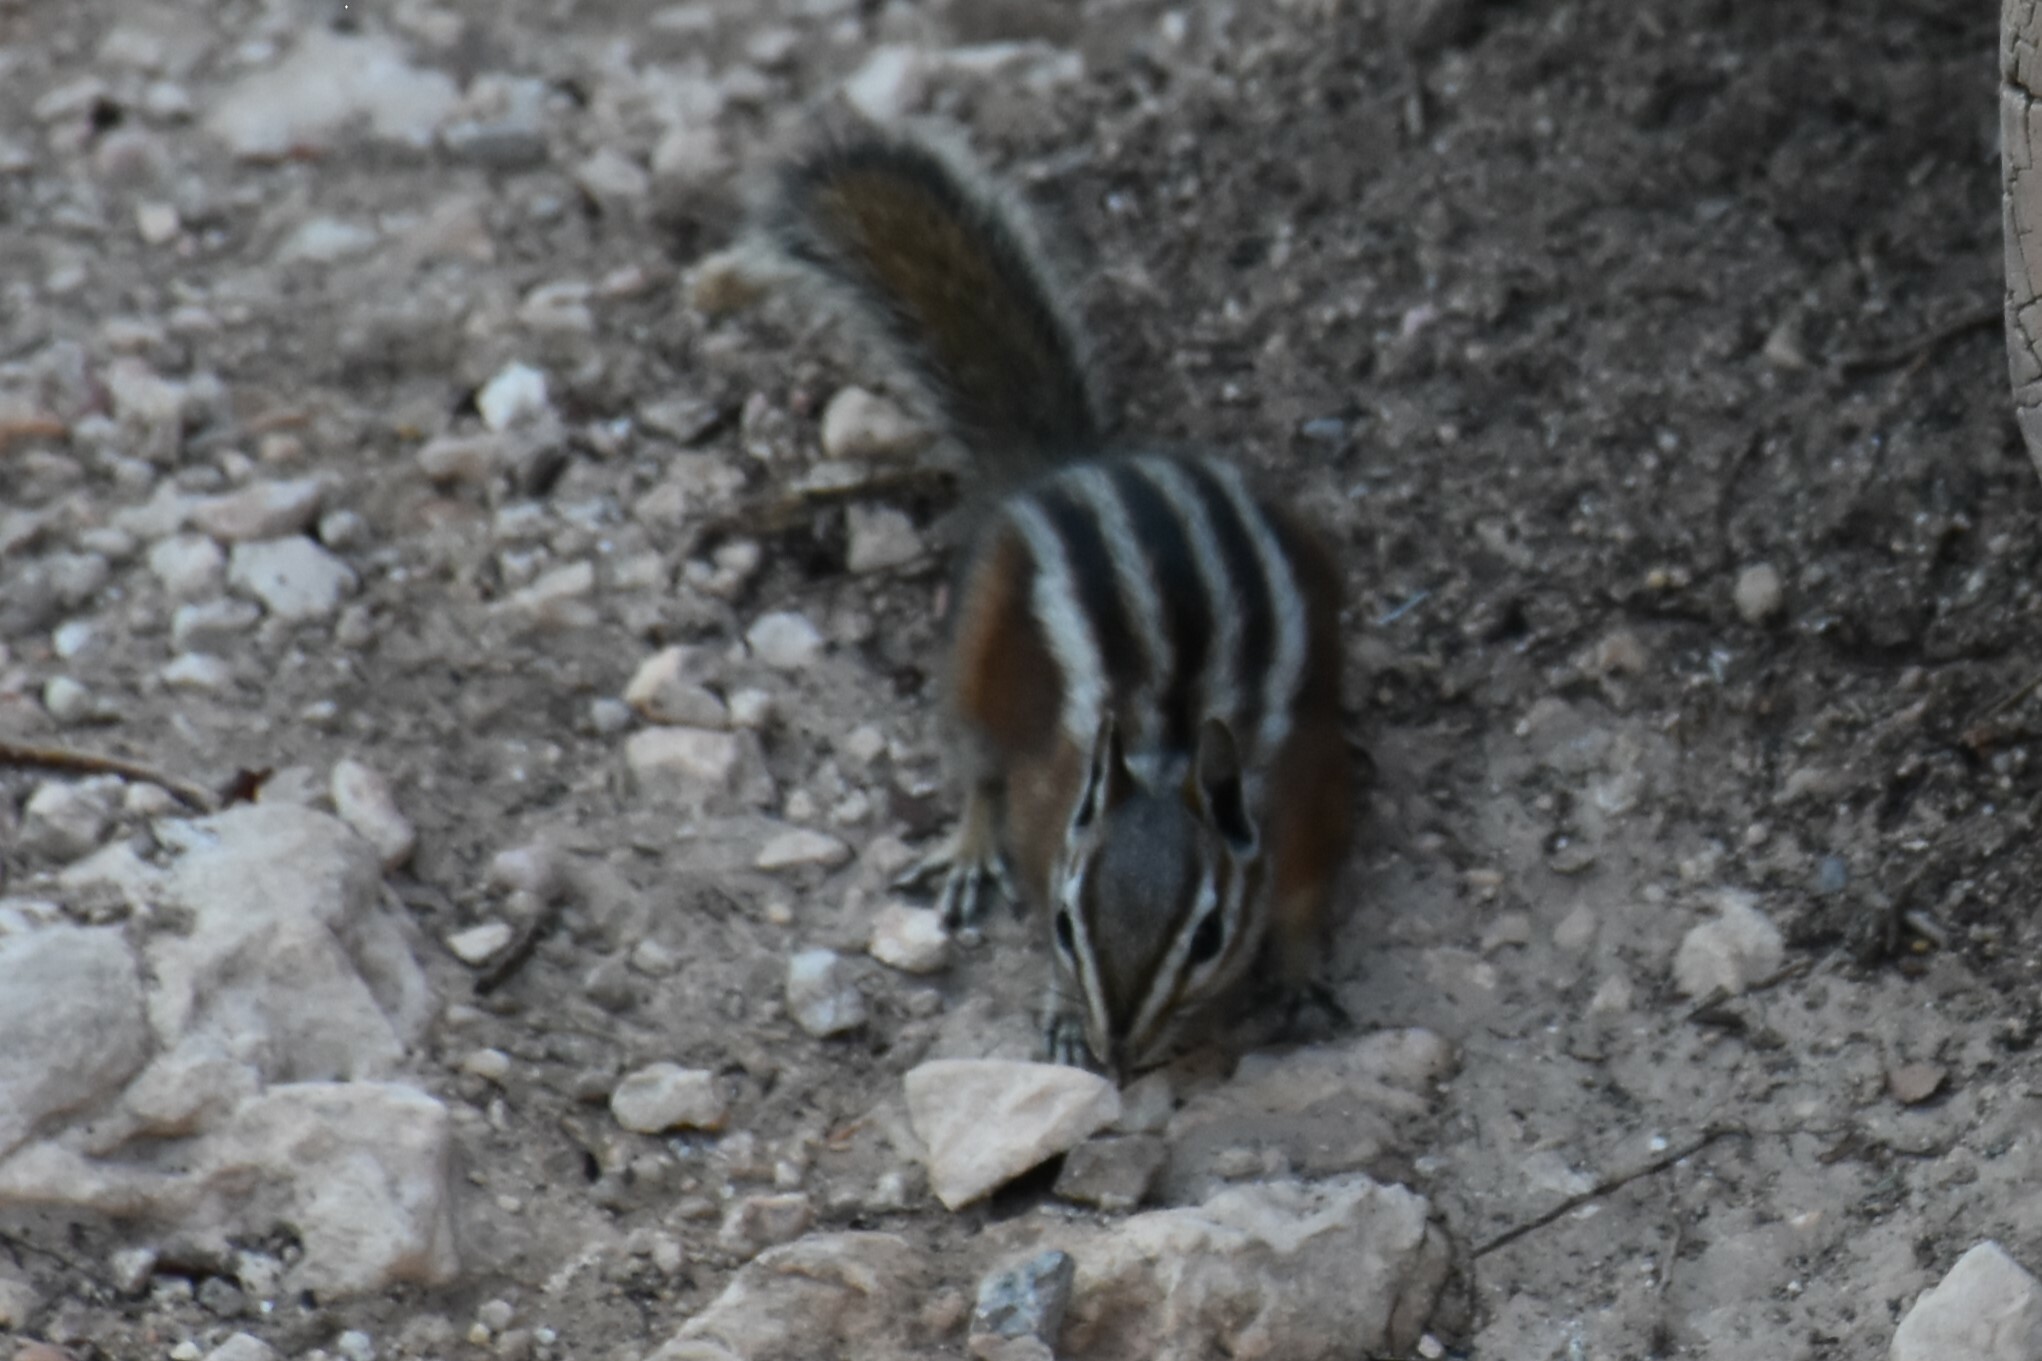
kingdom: Animalia
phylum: Chordata
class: Mammalia
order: Rodentia
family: Sciuridae
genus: Tamias
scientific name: Tamias umbrinus
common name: Uinta chipmunk
